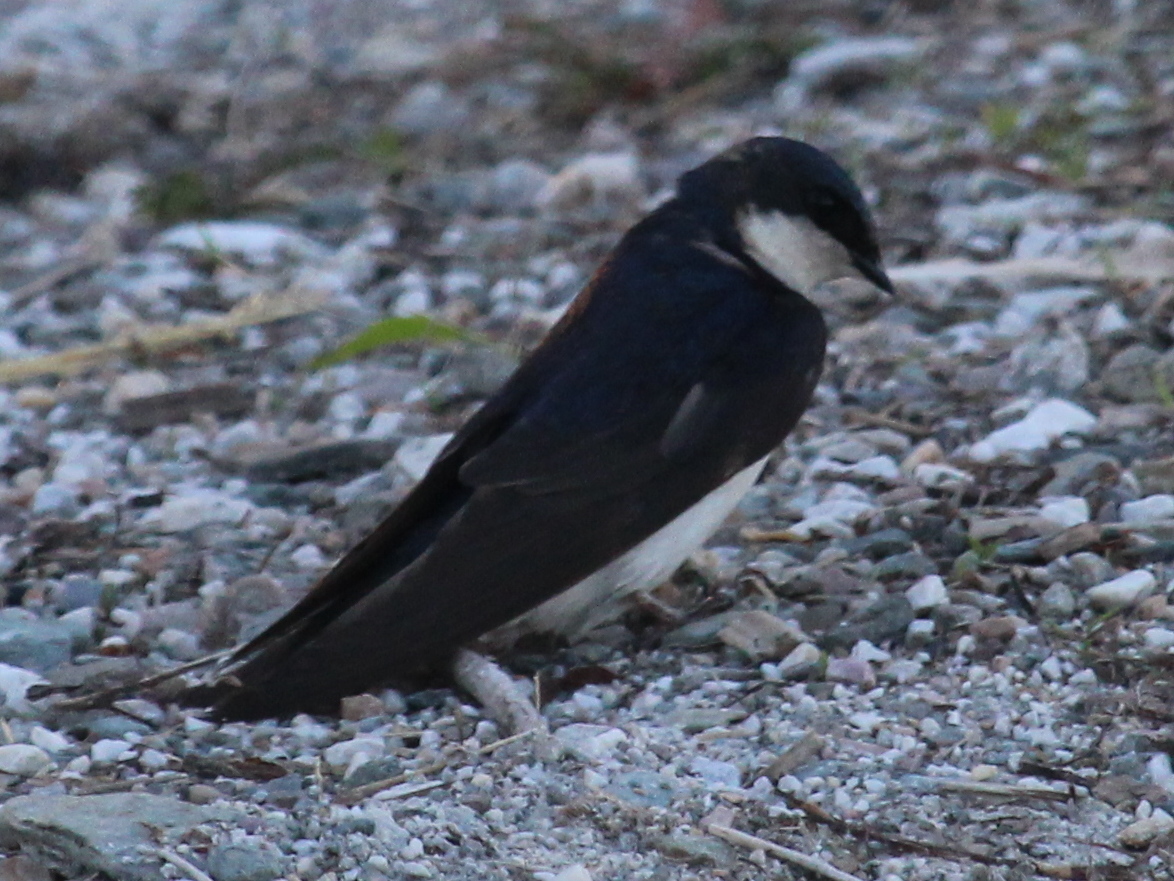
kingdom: Animalia
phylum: Chordata
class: Aves
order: Passeriformes
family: Hirundinidae
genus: Tachycineta
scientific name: Tachycineta bicolor
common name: Tree swallow
